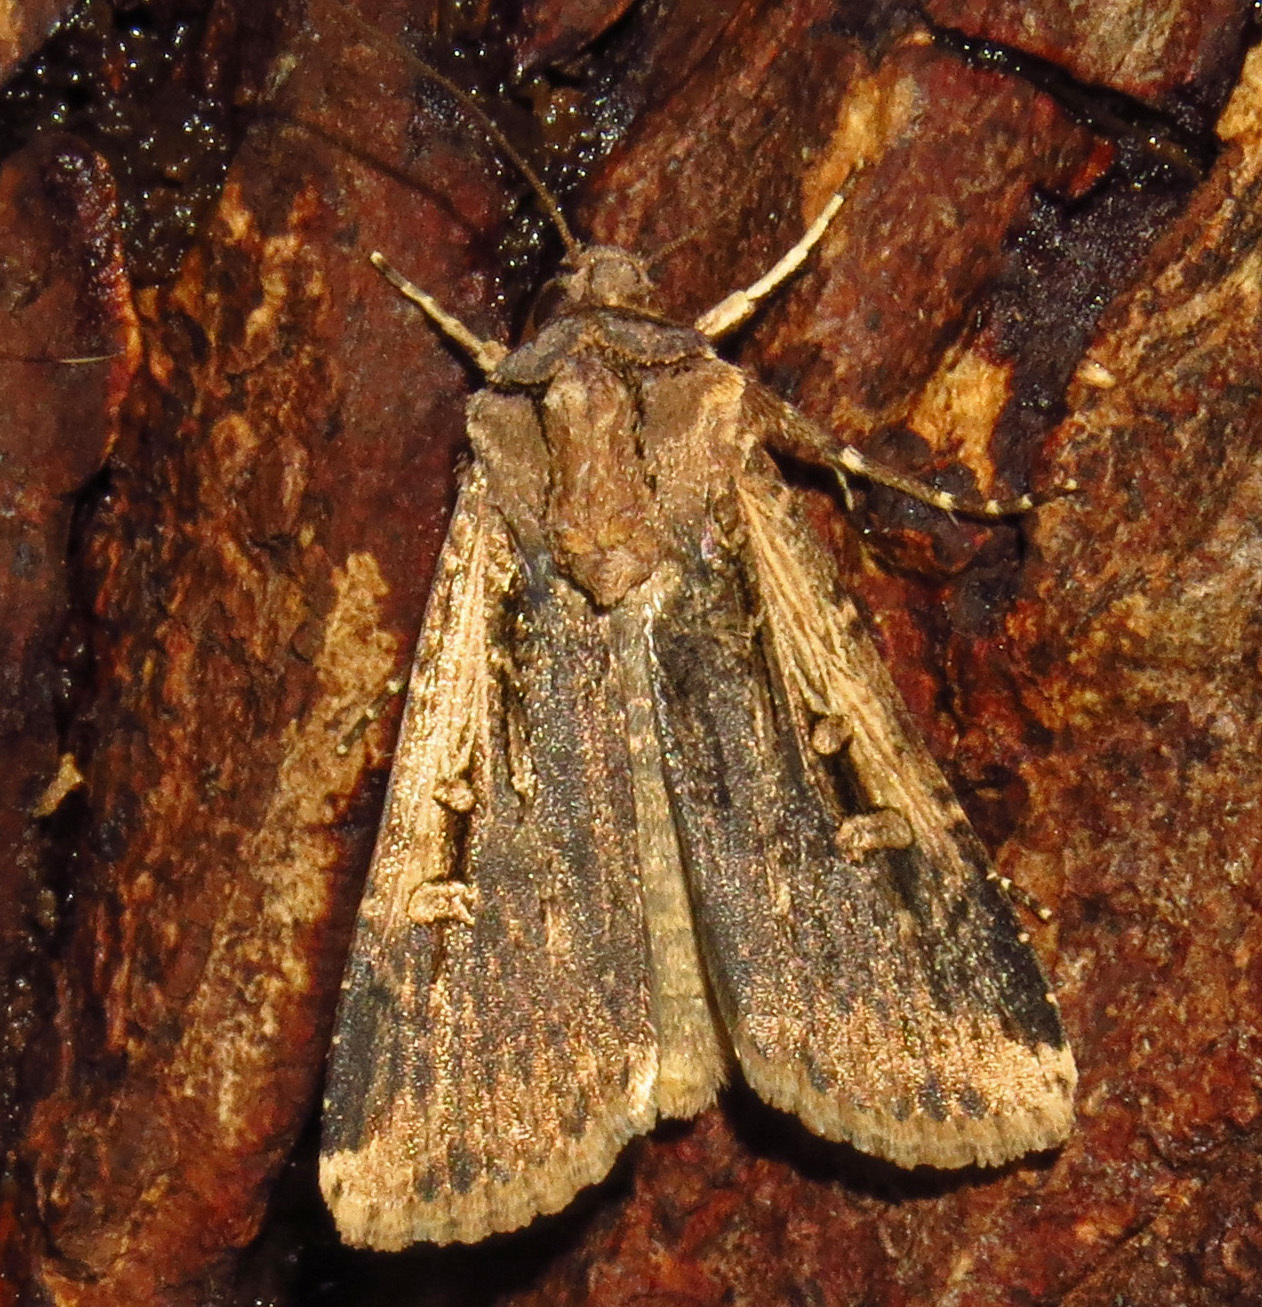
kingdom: Animalia
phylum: Arthropoda
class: Insecta
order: Lepidoptera
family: Noctuidae
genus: Feltia
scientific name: Feltia subterranea
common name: Granulate cutworm
